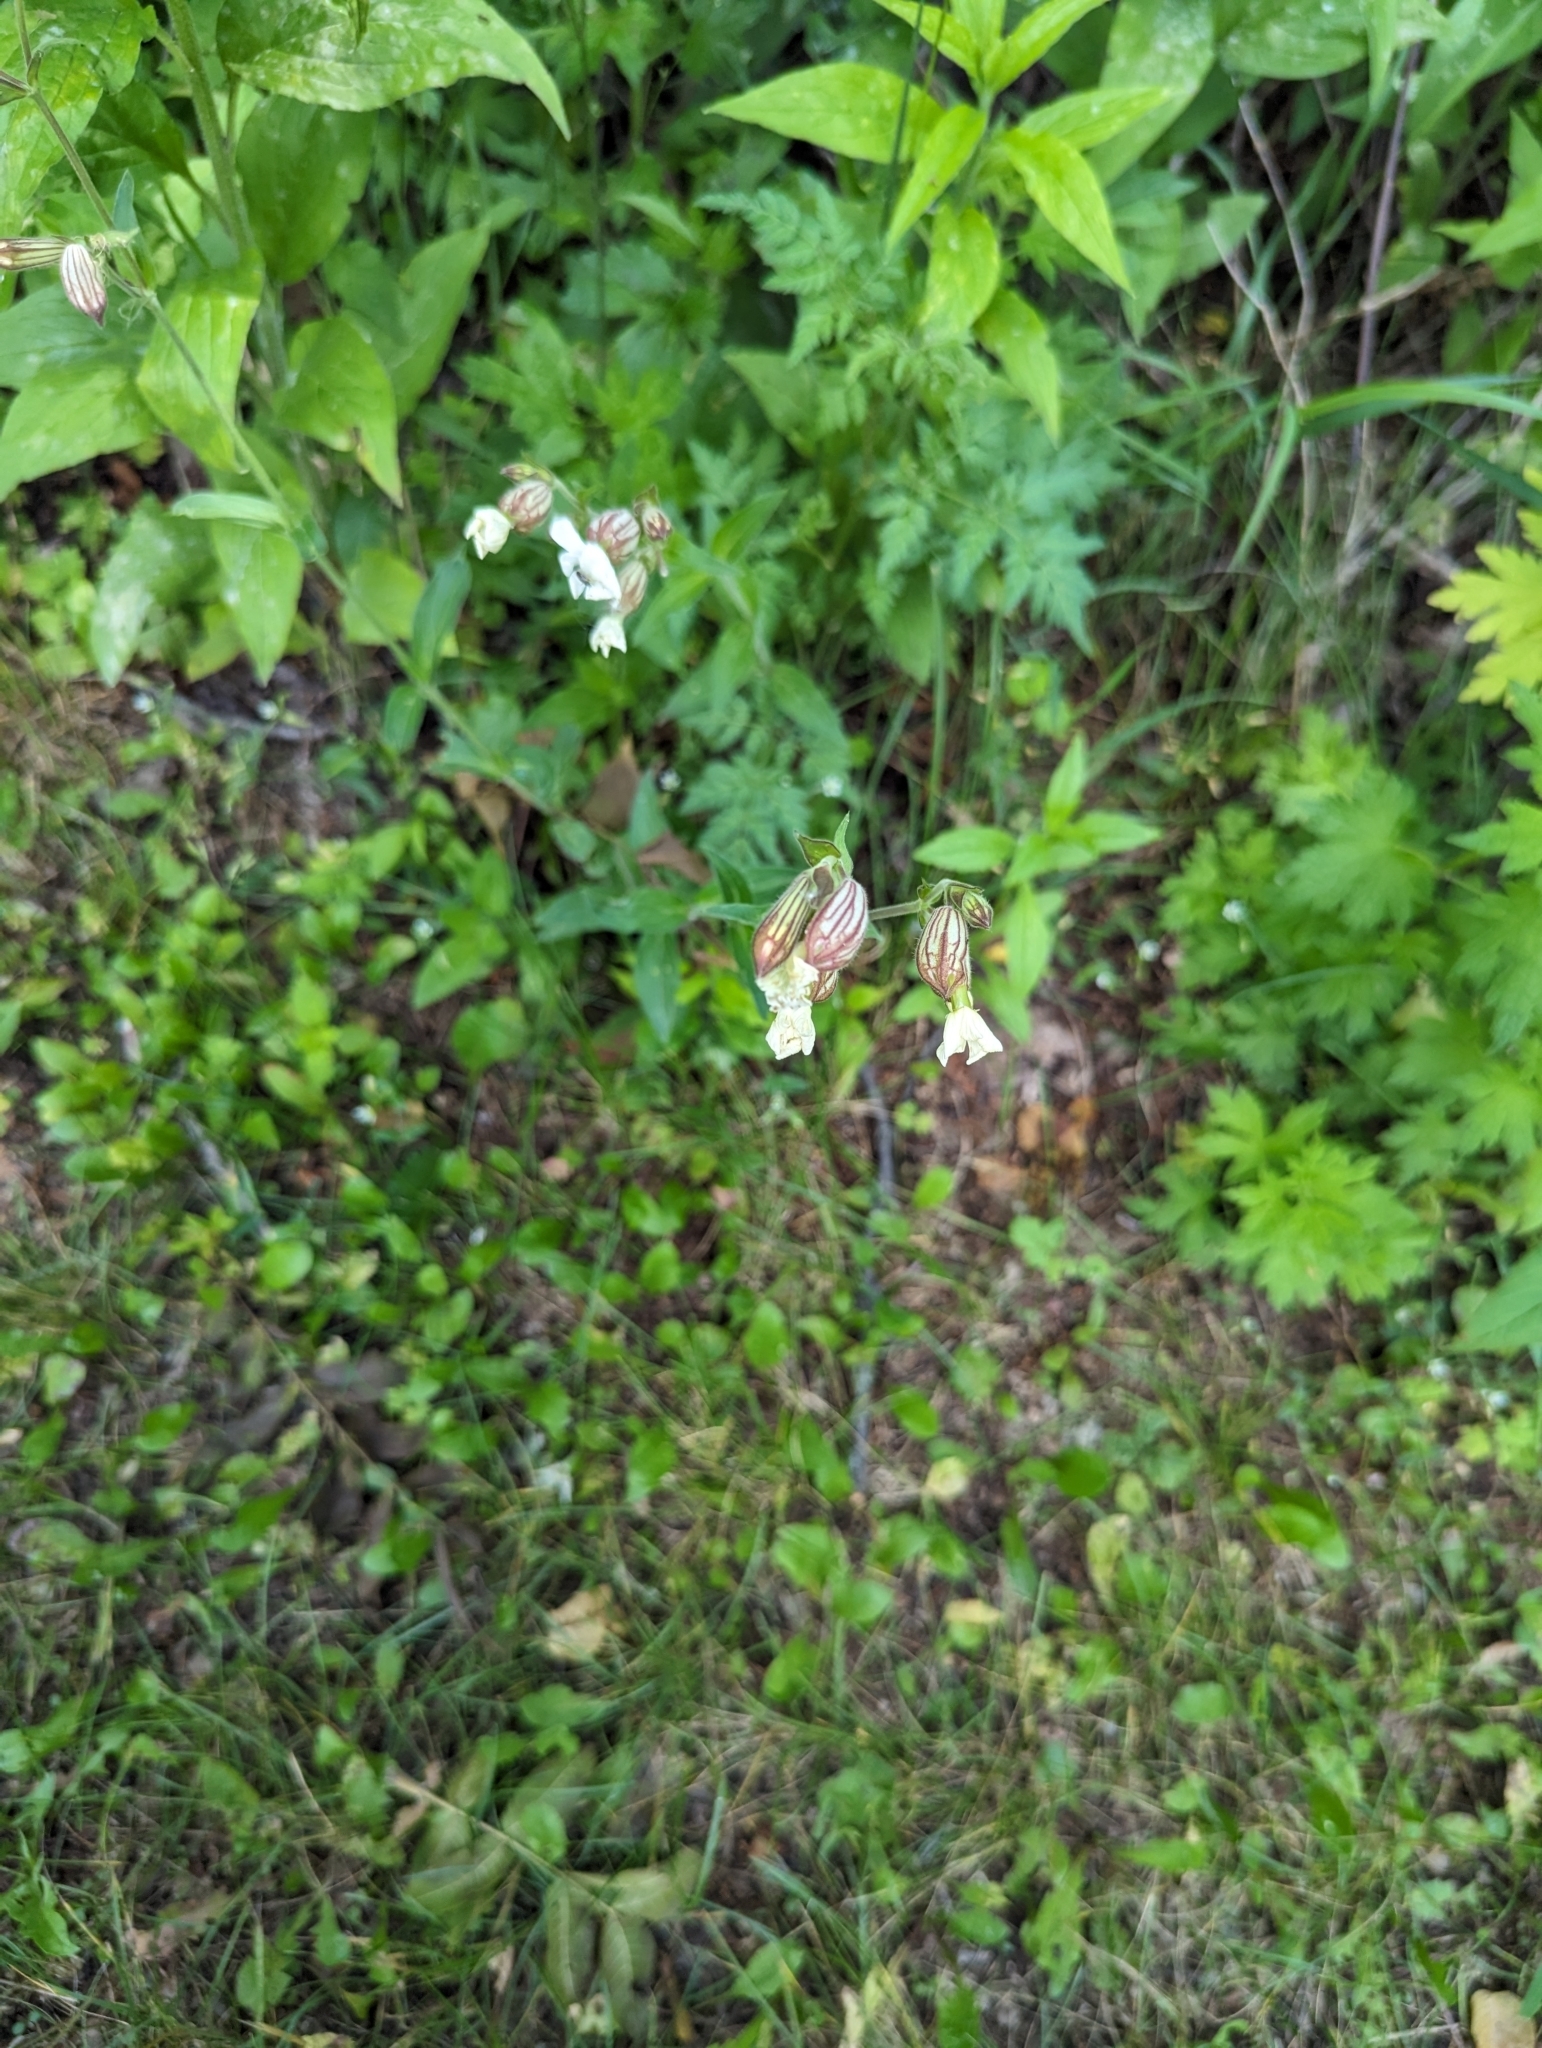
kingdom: Plantae
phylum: Tracheophyta
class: Magnoliopsida
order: Caryophyllales
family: Caryophyllaceae
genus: Silene
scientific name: Silene latifolia
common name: White campion
